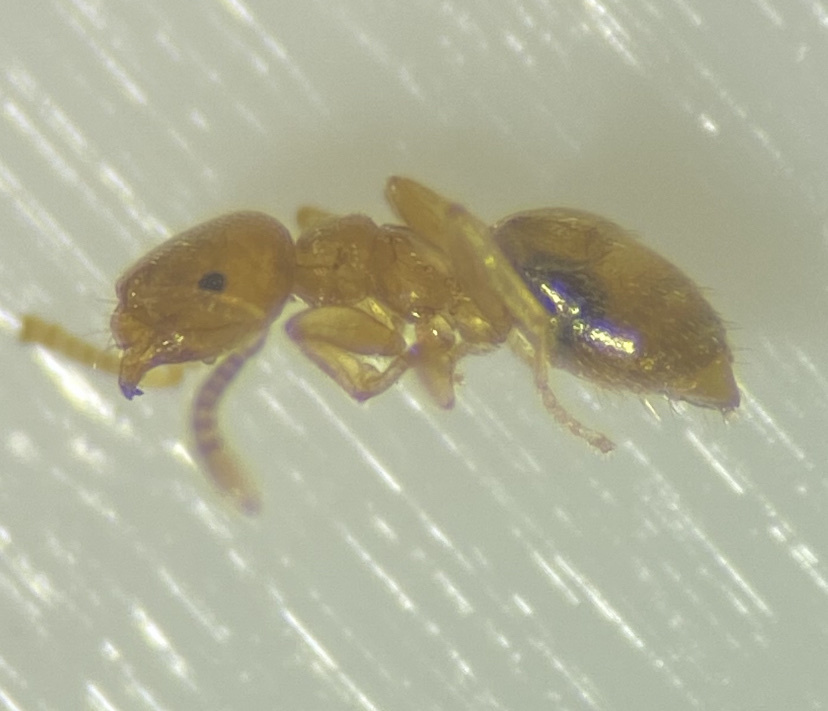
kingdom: Animalia
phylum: Arthropoda
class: Insecta
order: Hymenoptera
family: Formicidae
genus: Brachymyrmex
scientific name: Brachymyrmex depilis
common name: Hairless rover ant
